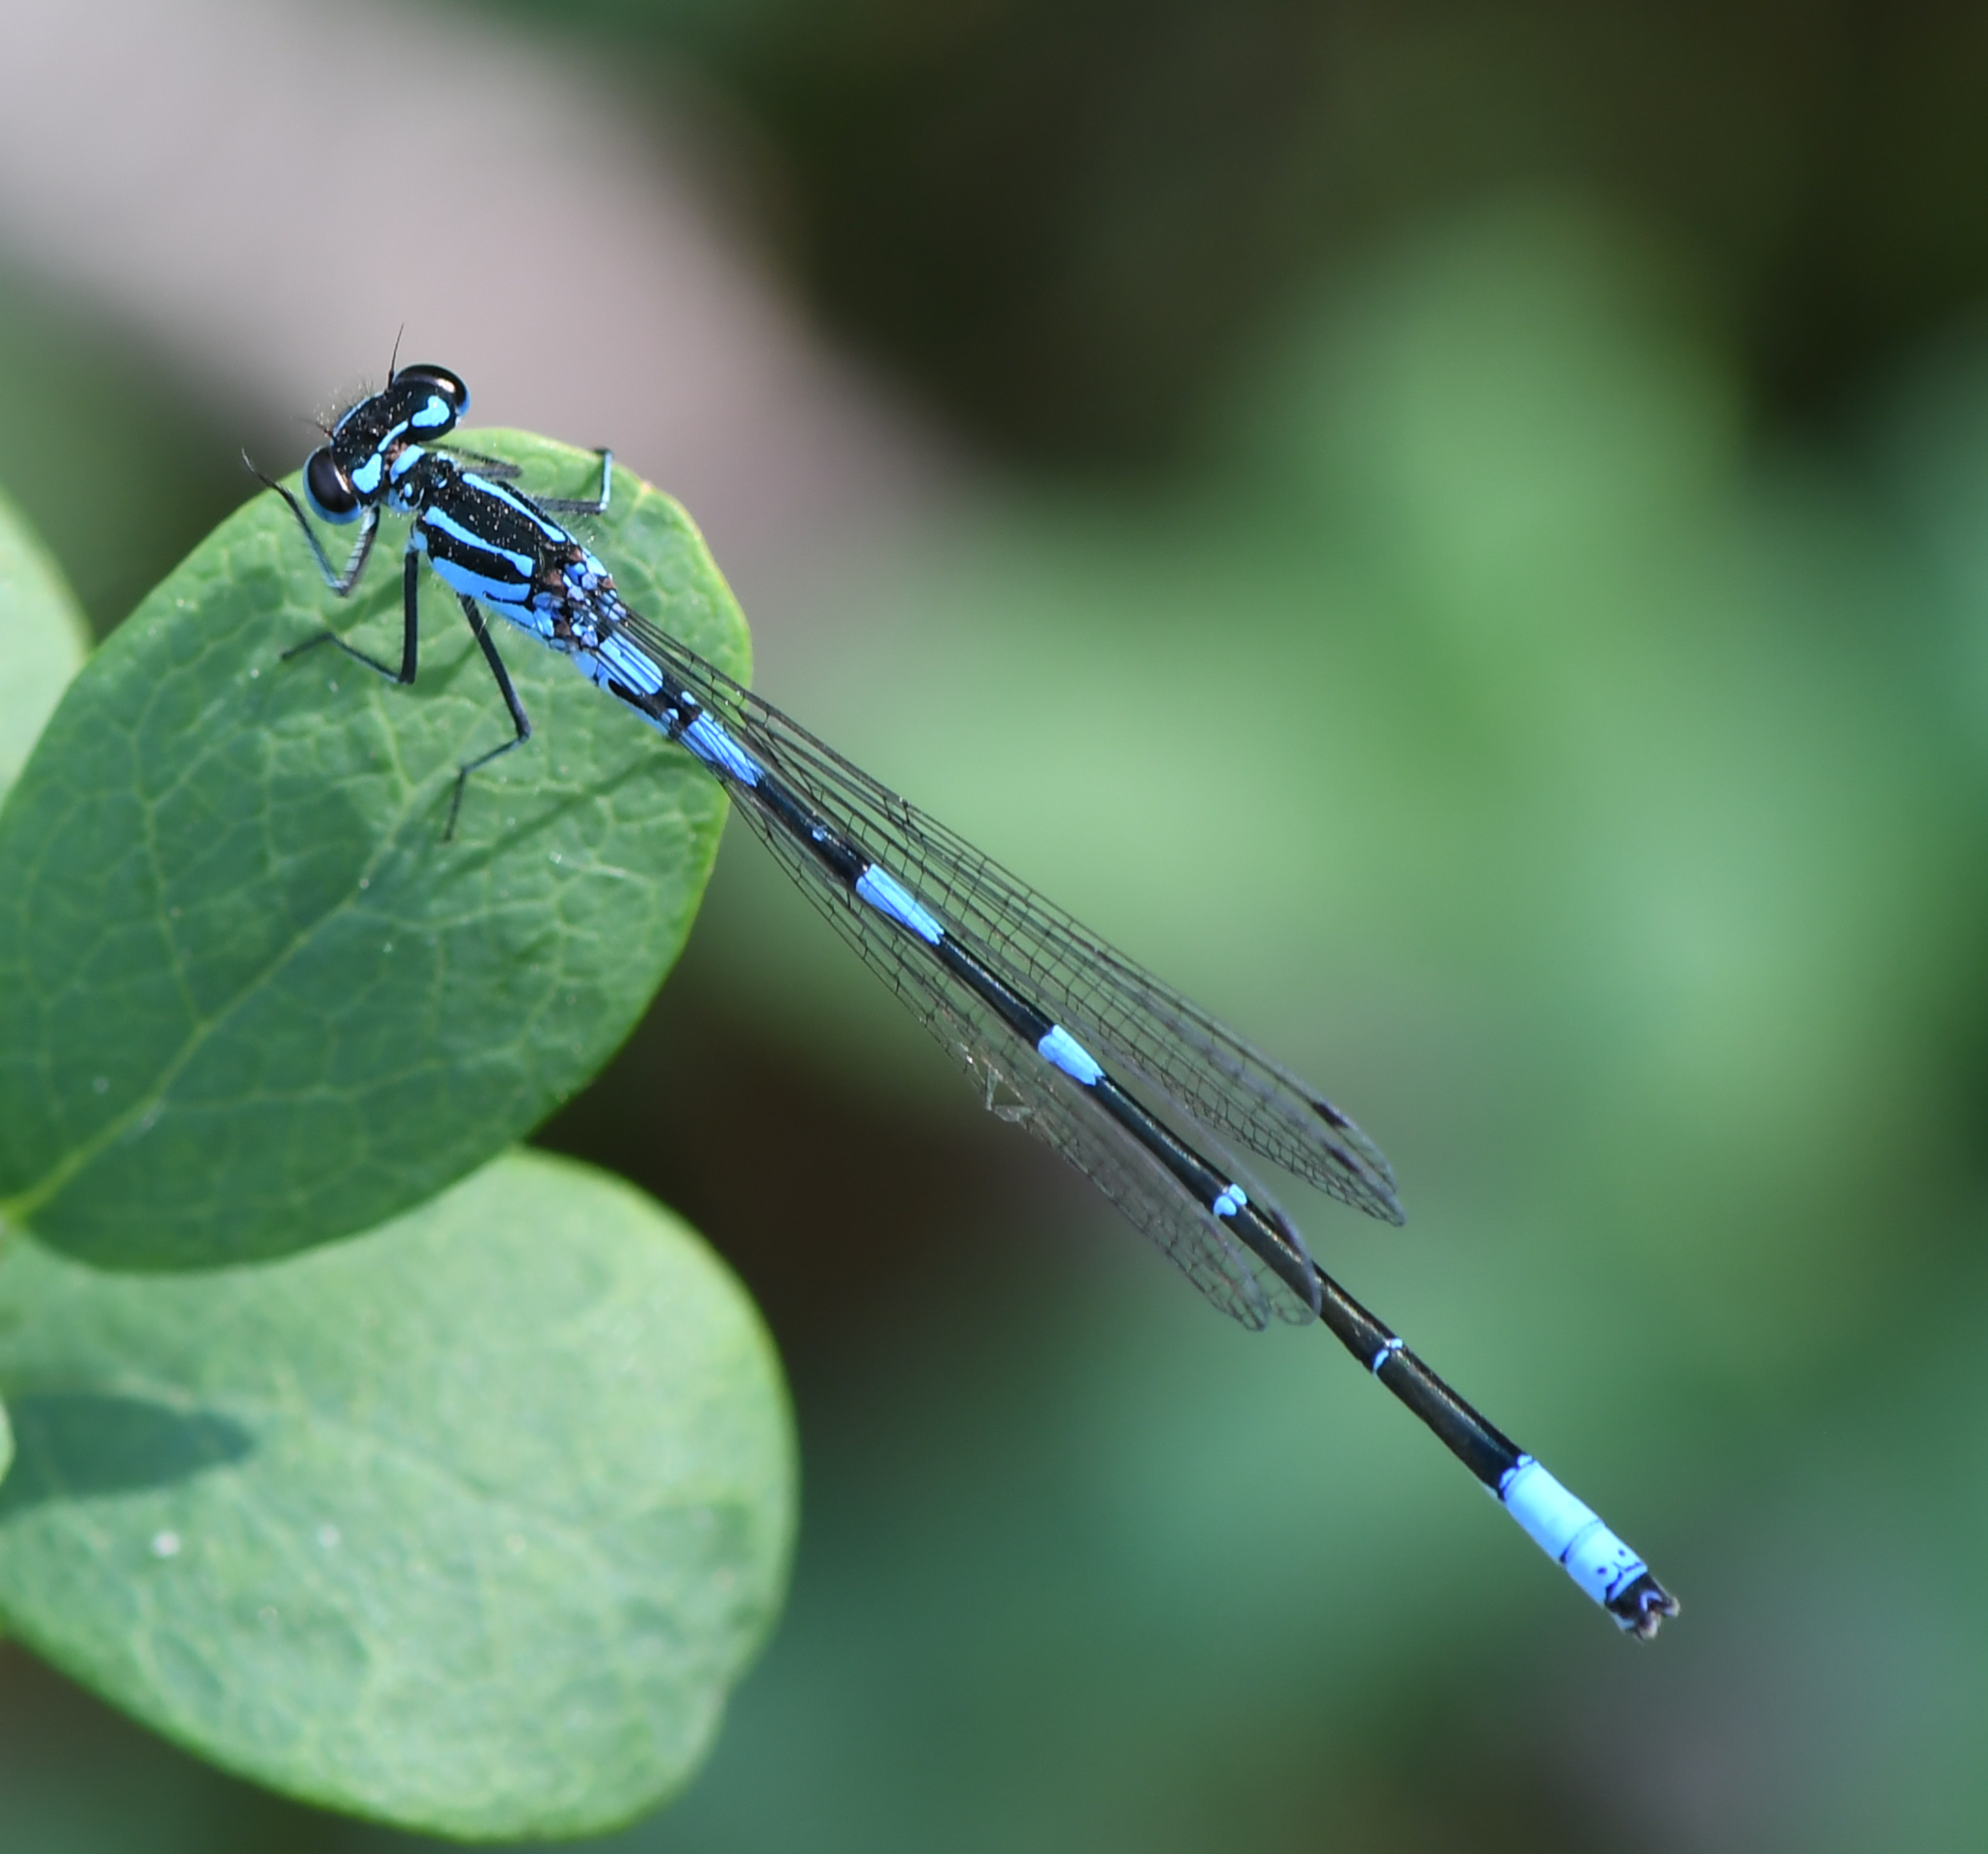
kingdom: Animalia
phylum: Arthropoda
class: Insecta
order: Odonata
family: Coenagrionidae
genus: Coenagrion
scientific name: Coenagrion pulchellum
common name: Variable bluet
